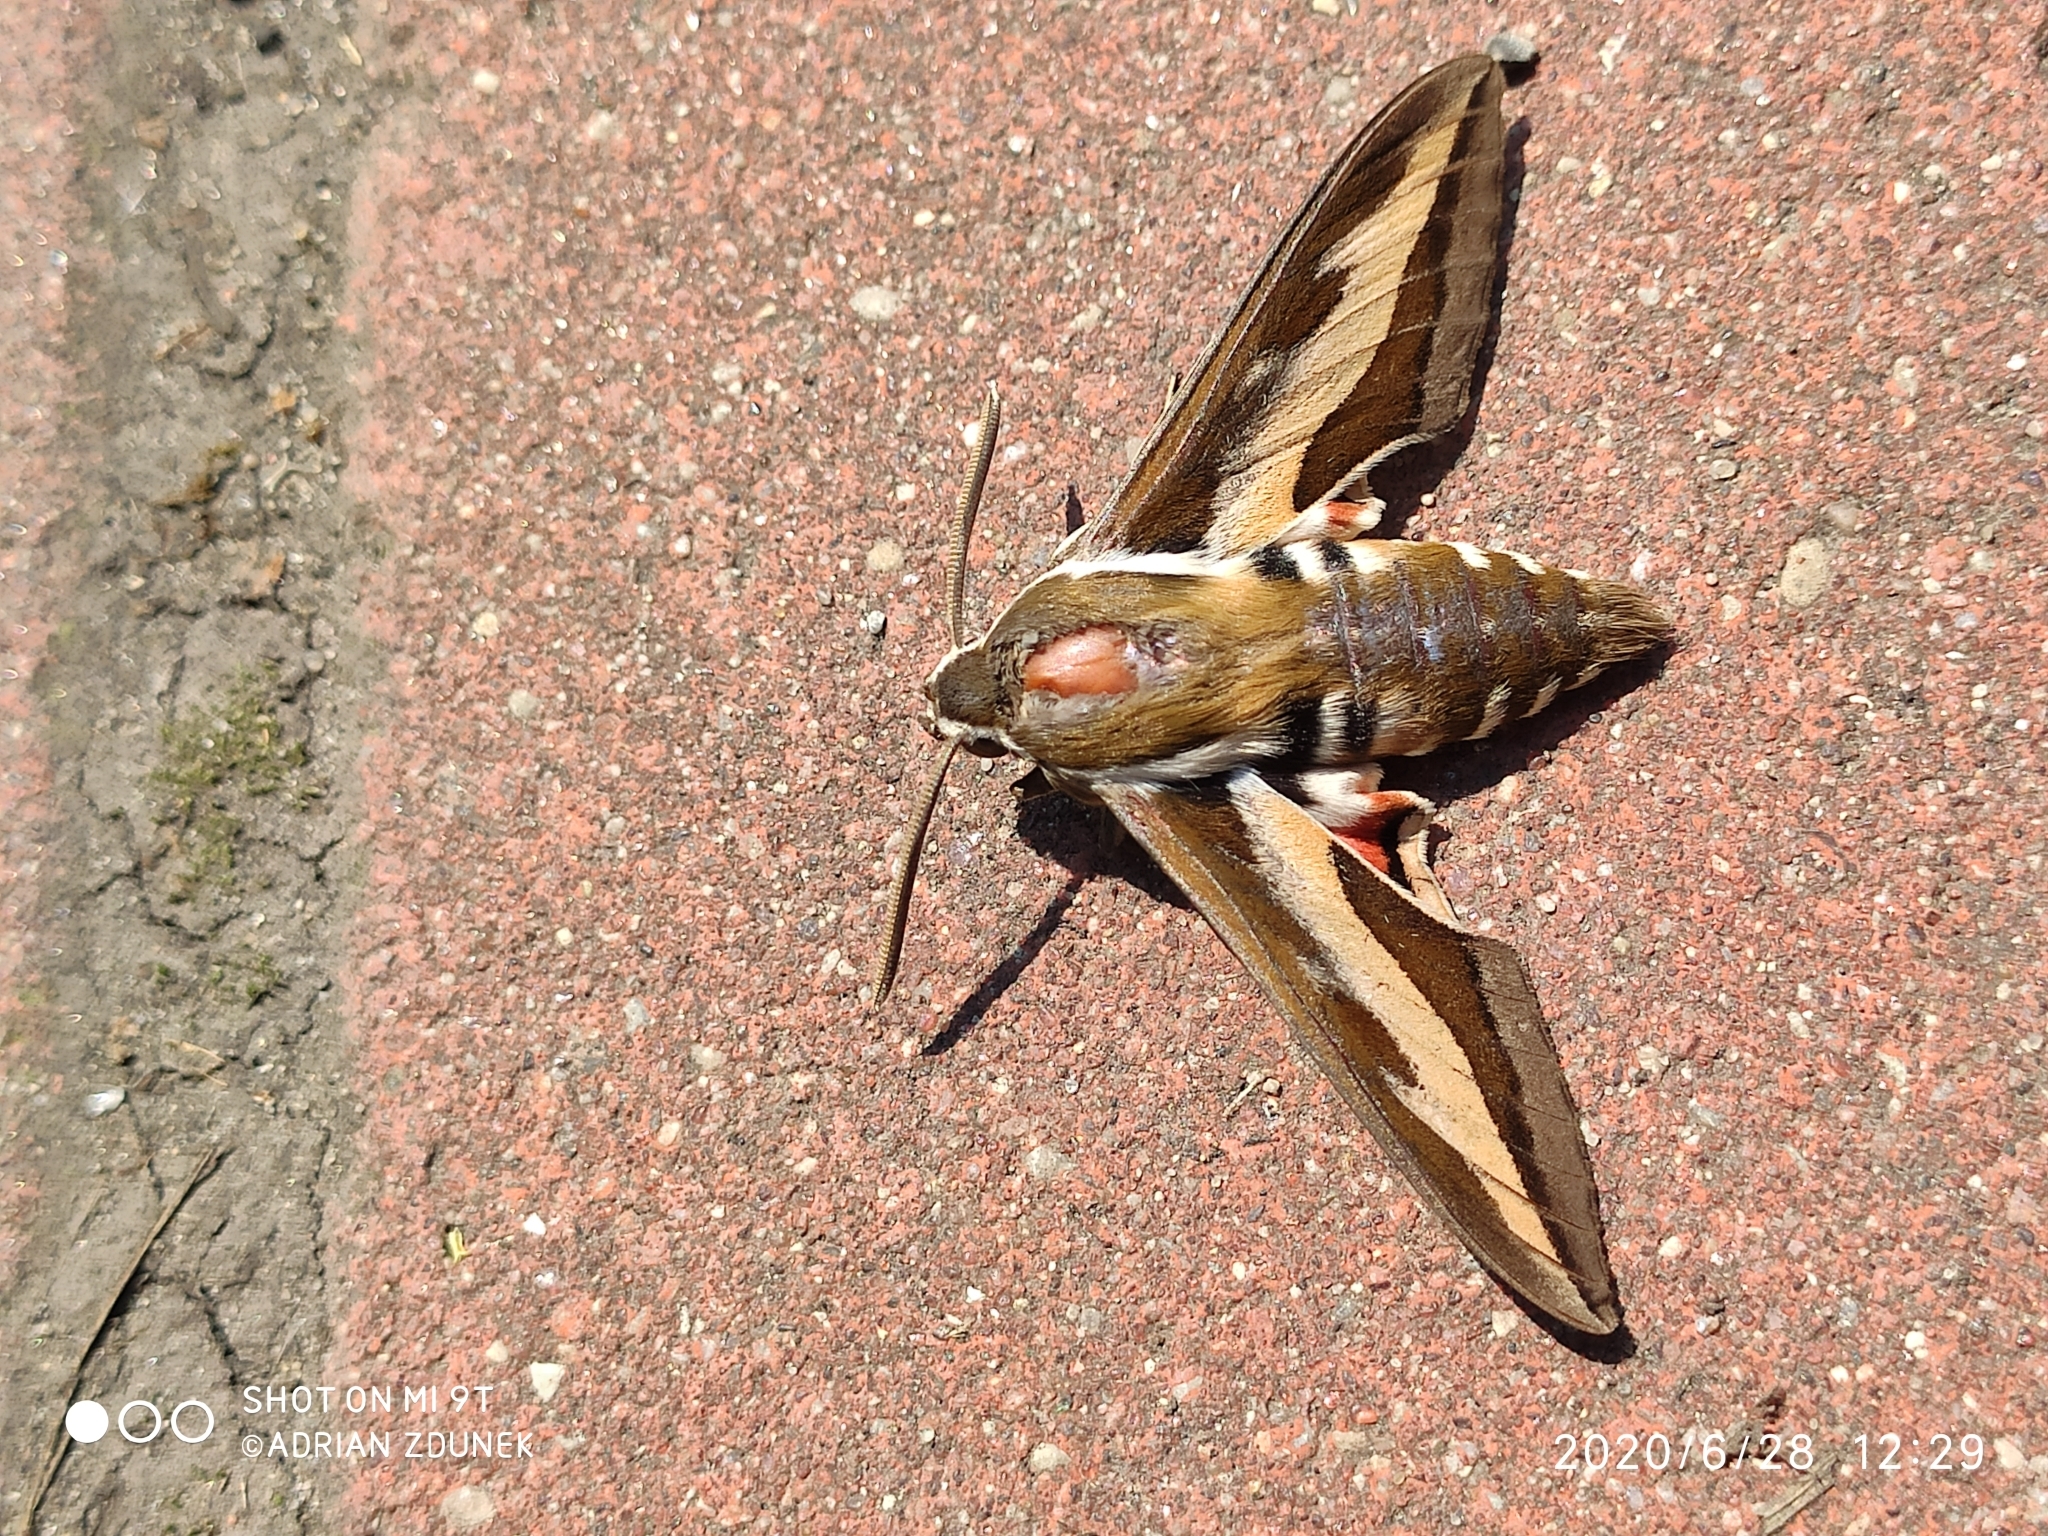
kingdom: Animalia
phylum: Arthropoda
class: Insecta
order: Lepidoptera
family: Sphingidae
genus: Hyles
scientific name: Hyles gallii
